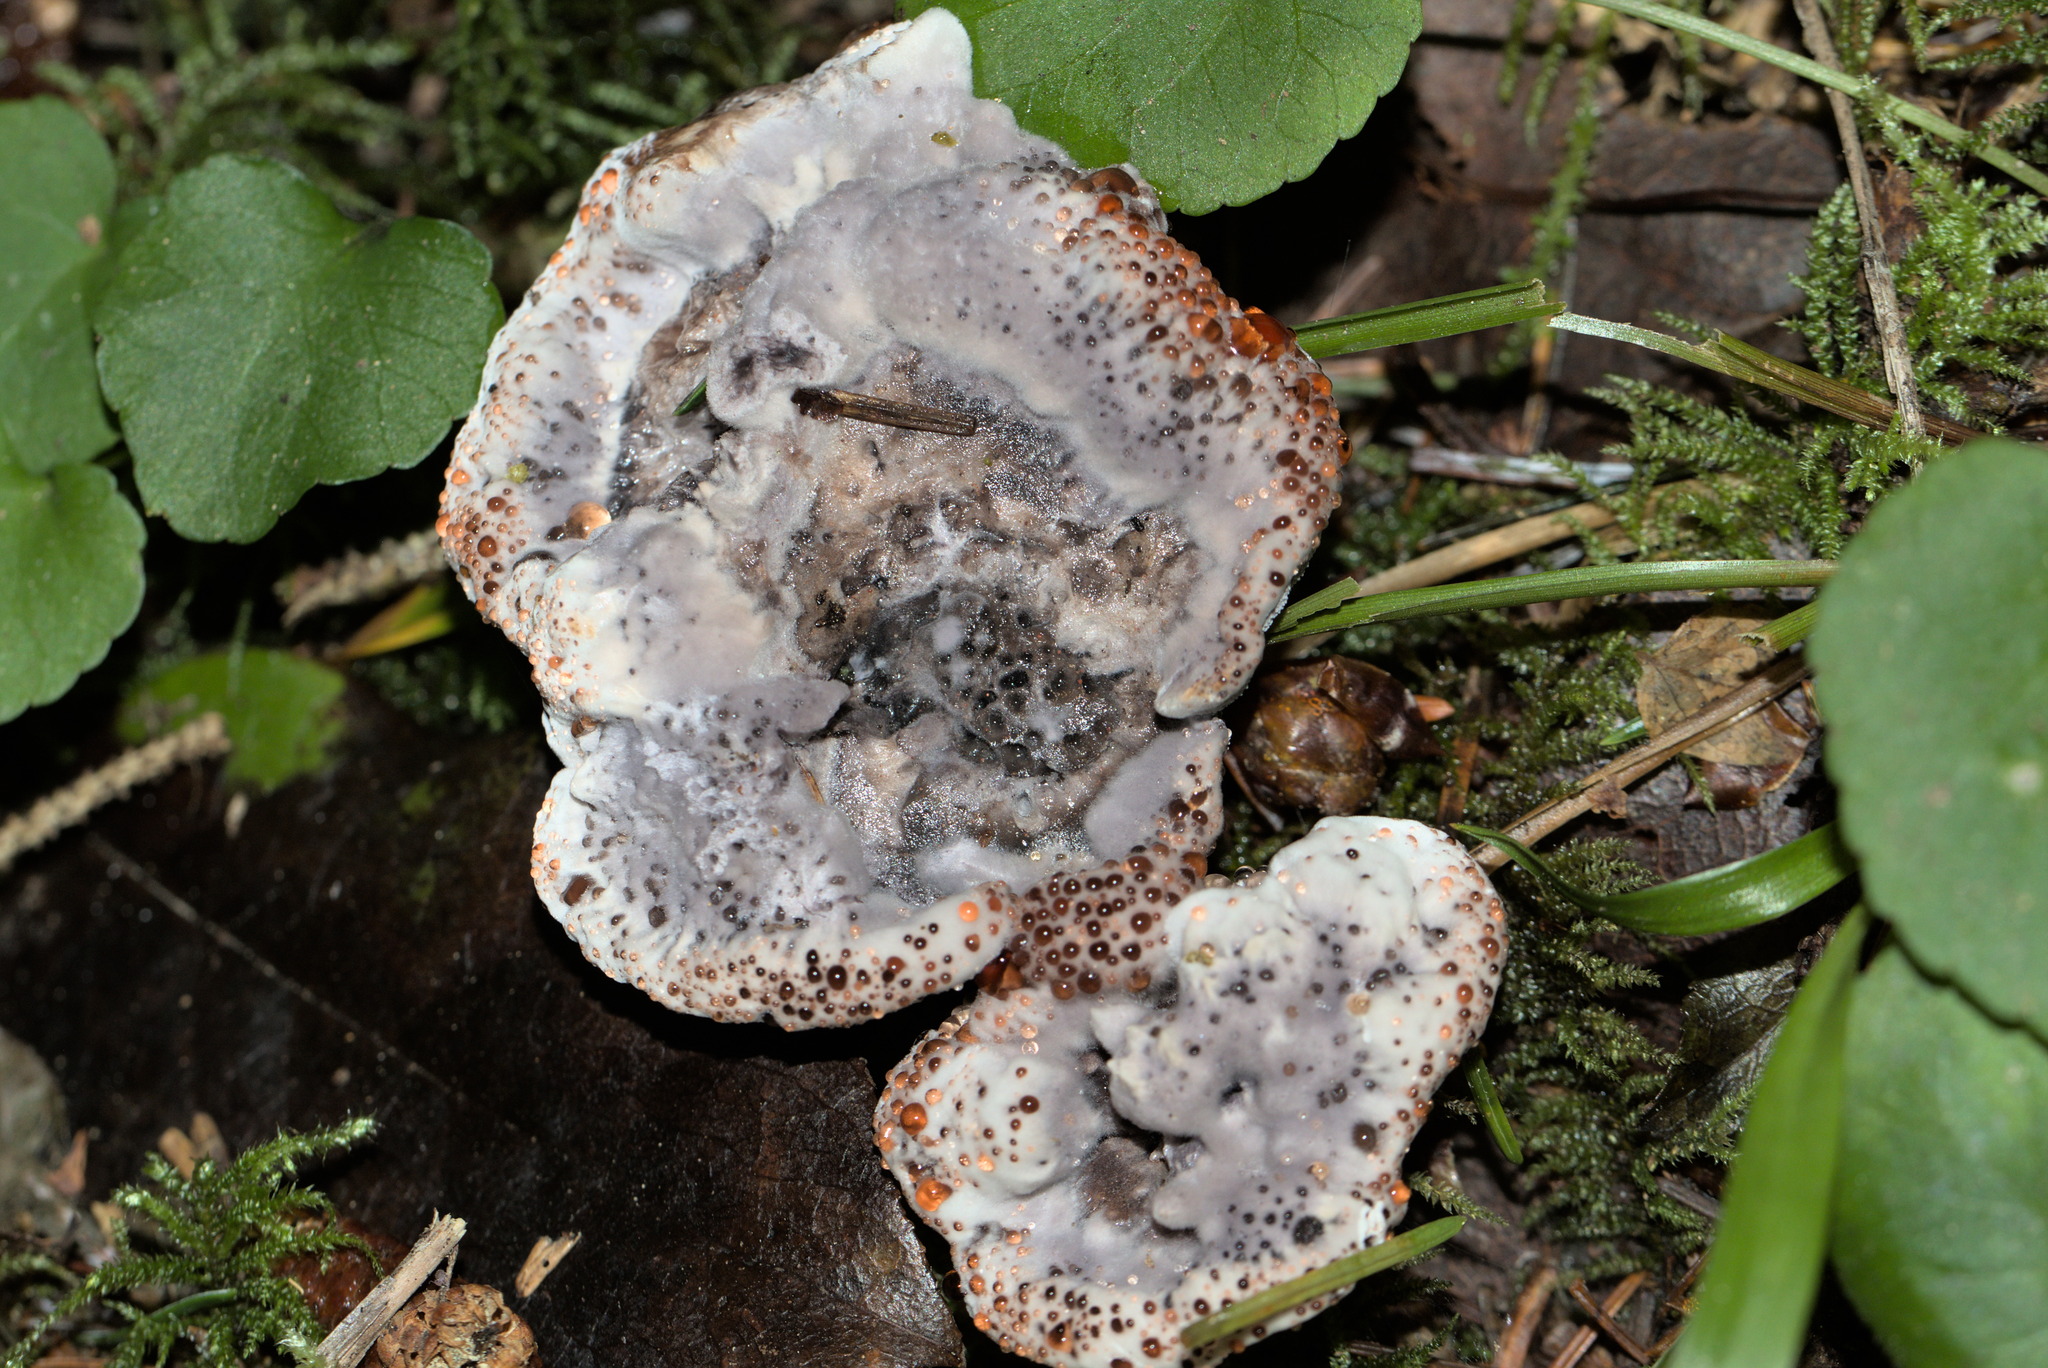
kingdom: Fungi
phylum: Basidiomycota
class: Agaricomycetes
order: Thelephorales
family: Bankeraceae
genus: Hydnellum
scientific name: Hydnellum cyanopodium
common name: Bleeding blue tooth
